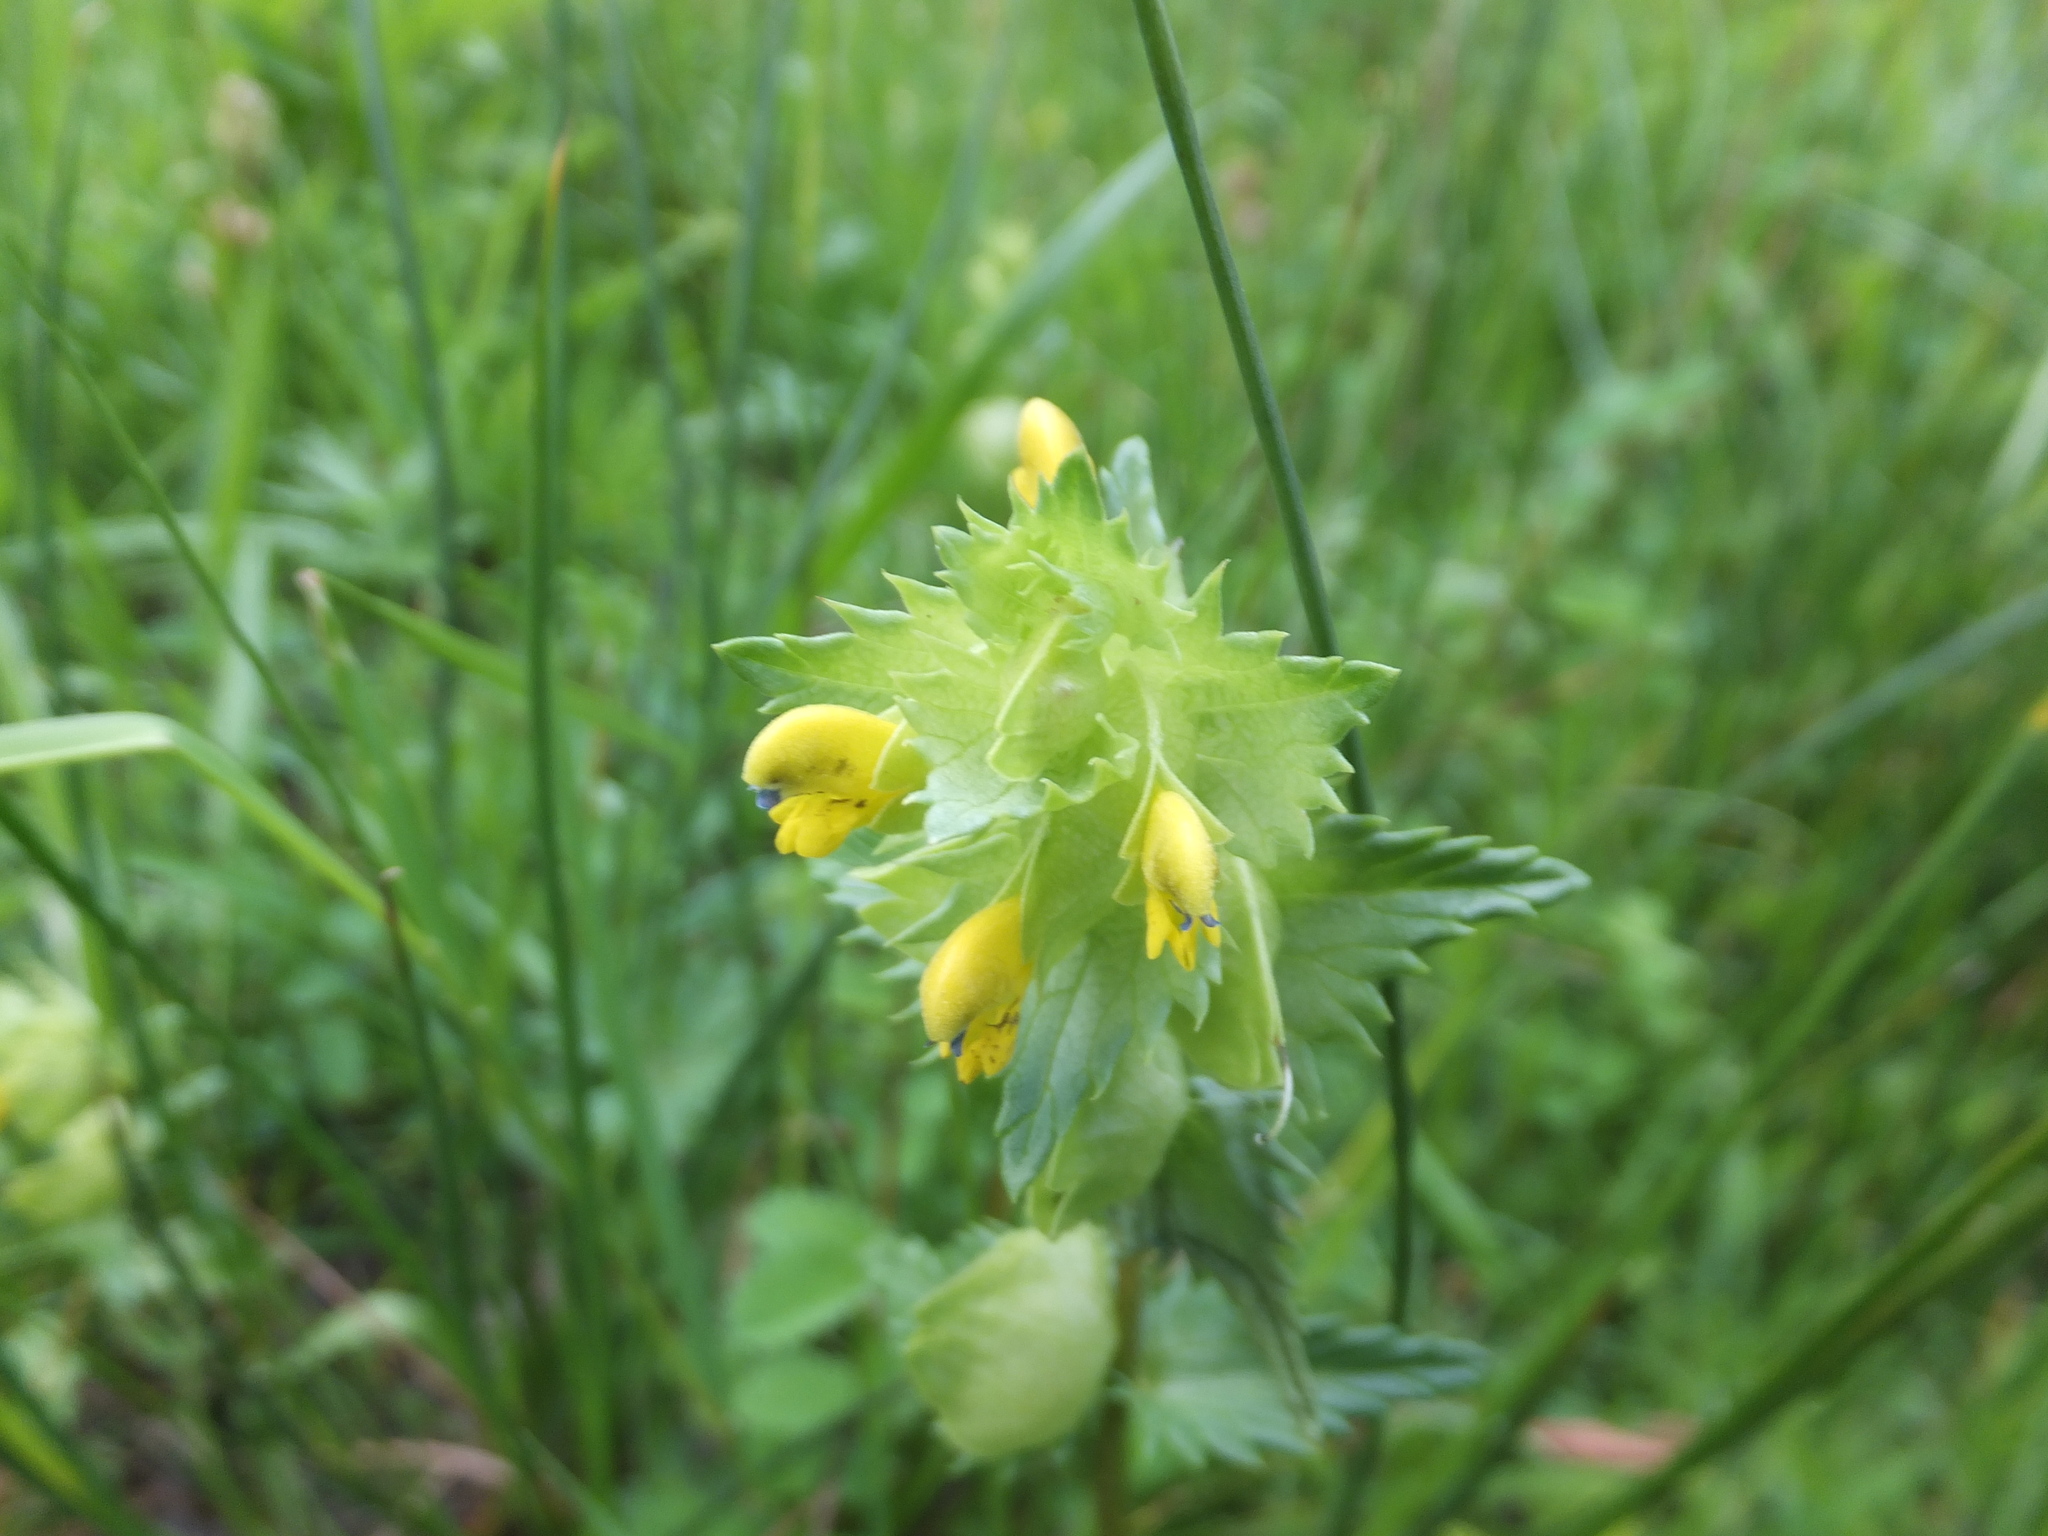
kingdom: Plantae
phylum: Tracheophyta
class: Magnoliopsida
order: Lamiales
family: Orobanchaceae
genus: Rhinanthus
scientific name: Rhinanthus minor
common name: Yellow-rattle
